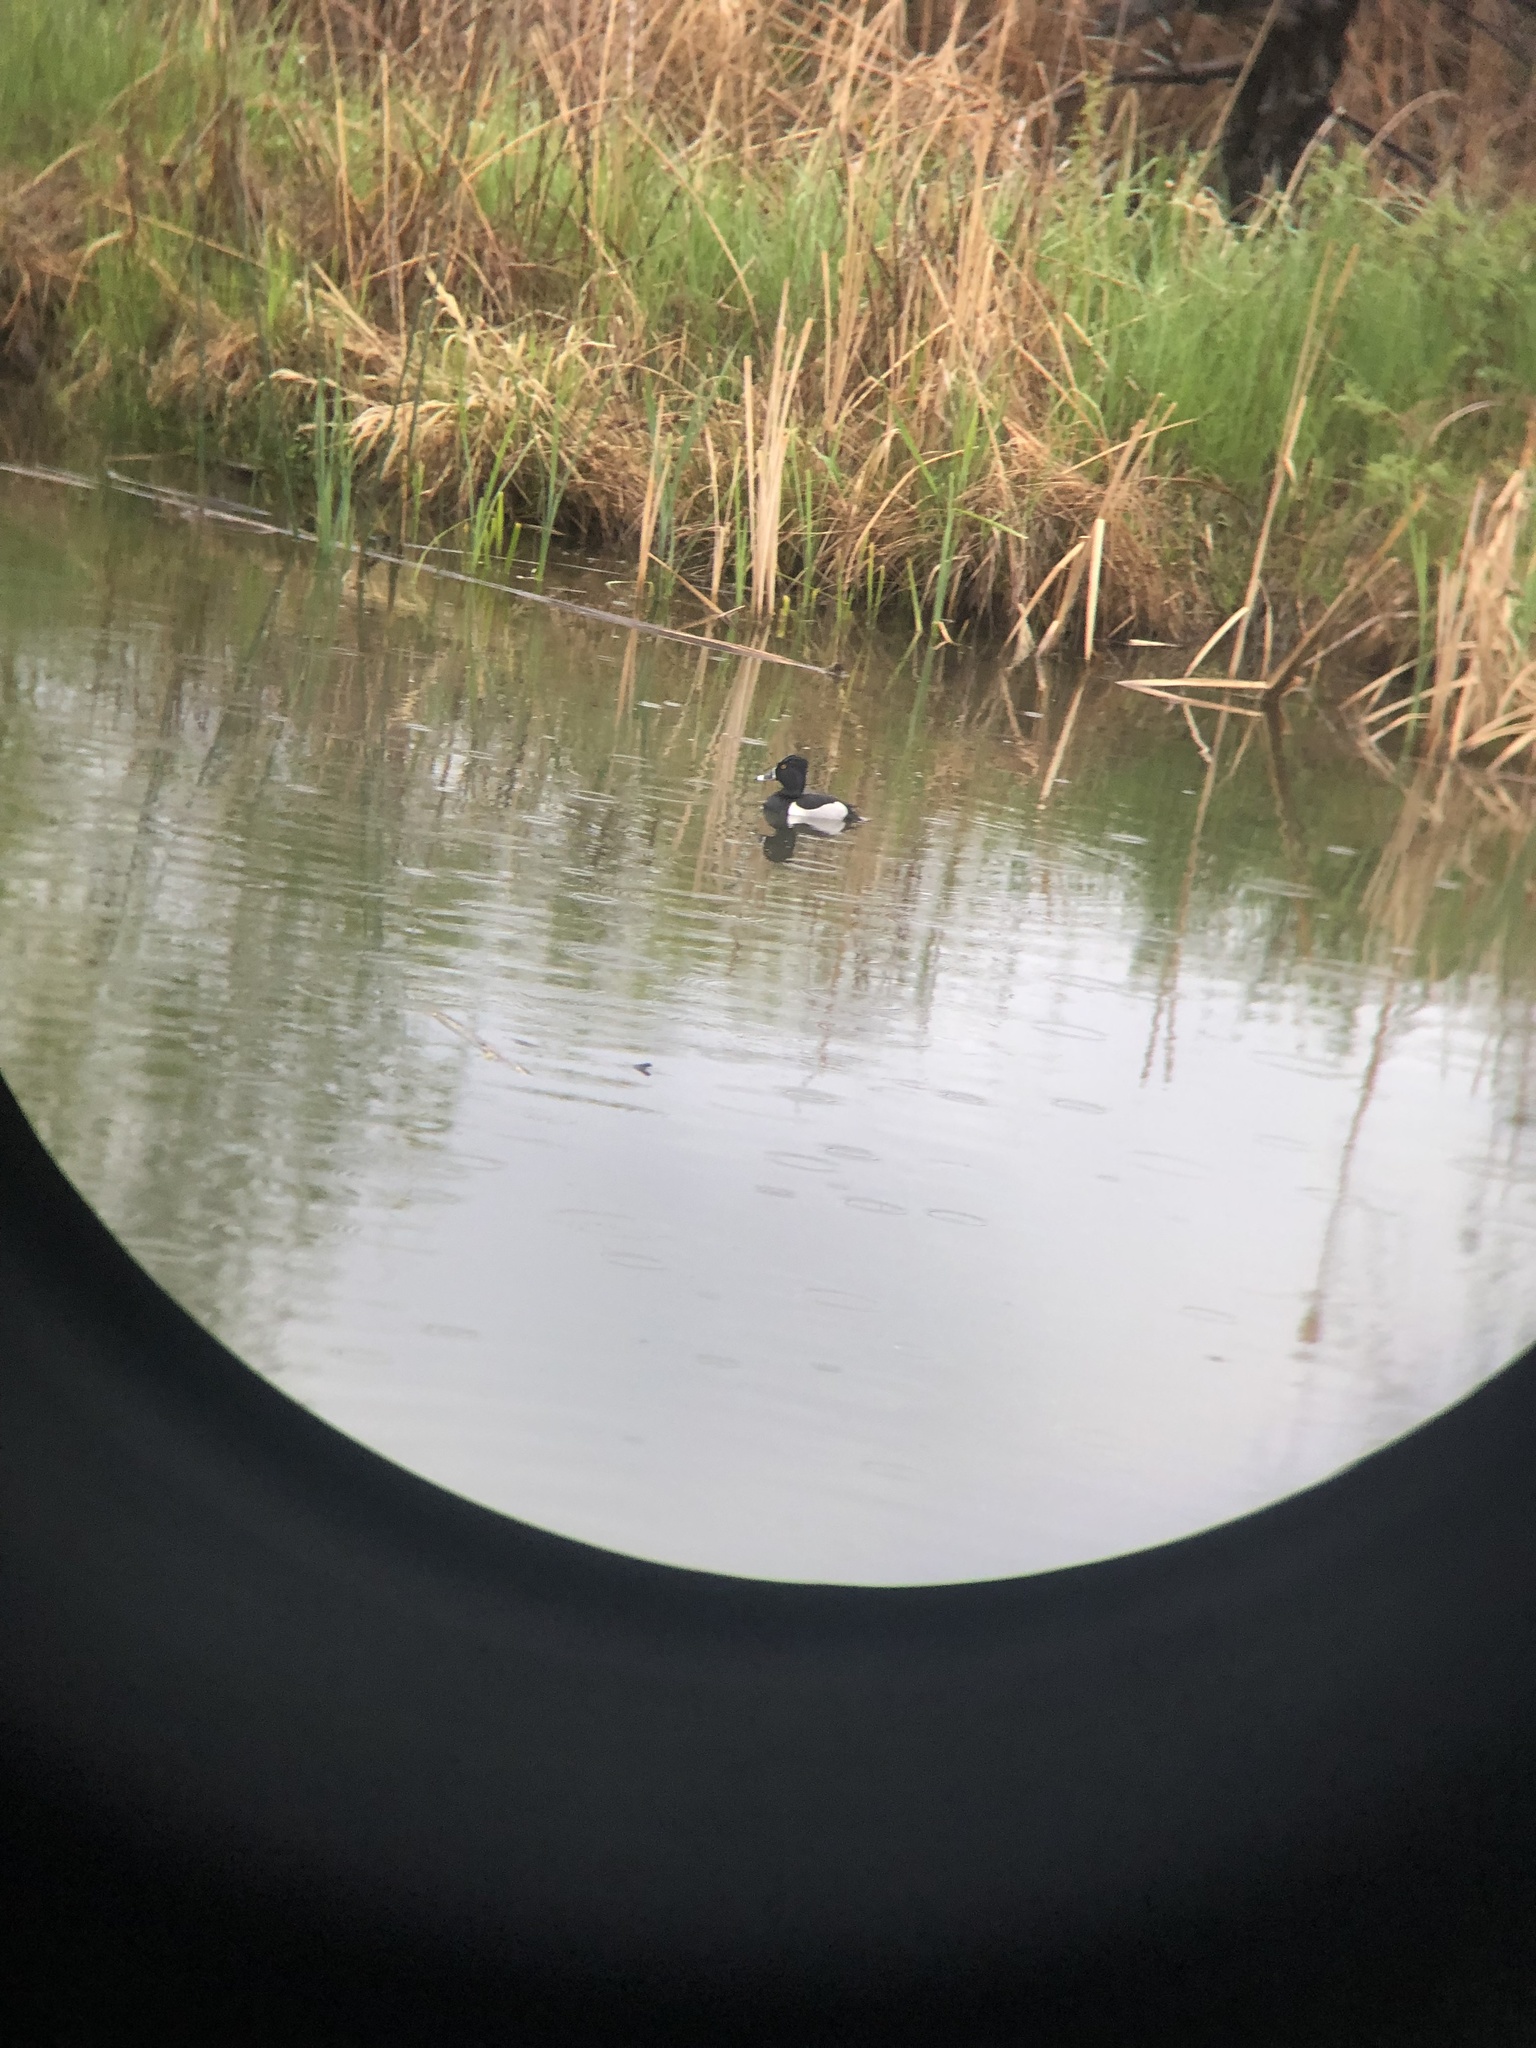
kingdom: Animalia
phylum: Chordata
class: Aves
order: Anseriformes
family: Anatidae
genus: Aythya
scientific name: Aythya collaris
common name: Ring-necked duck
